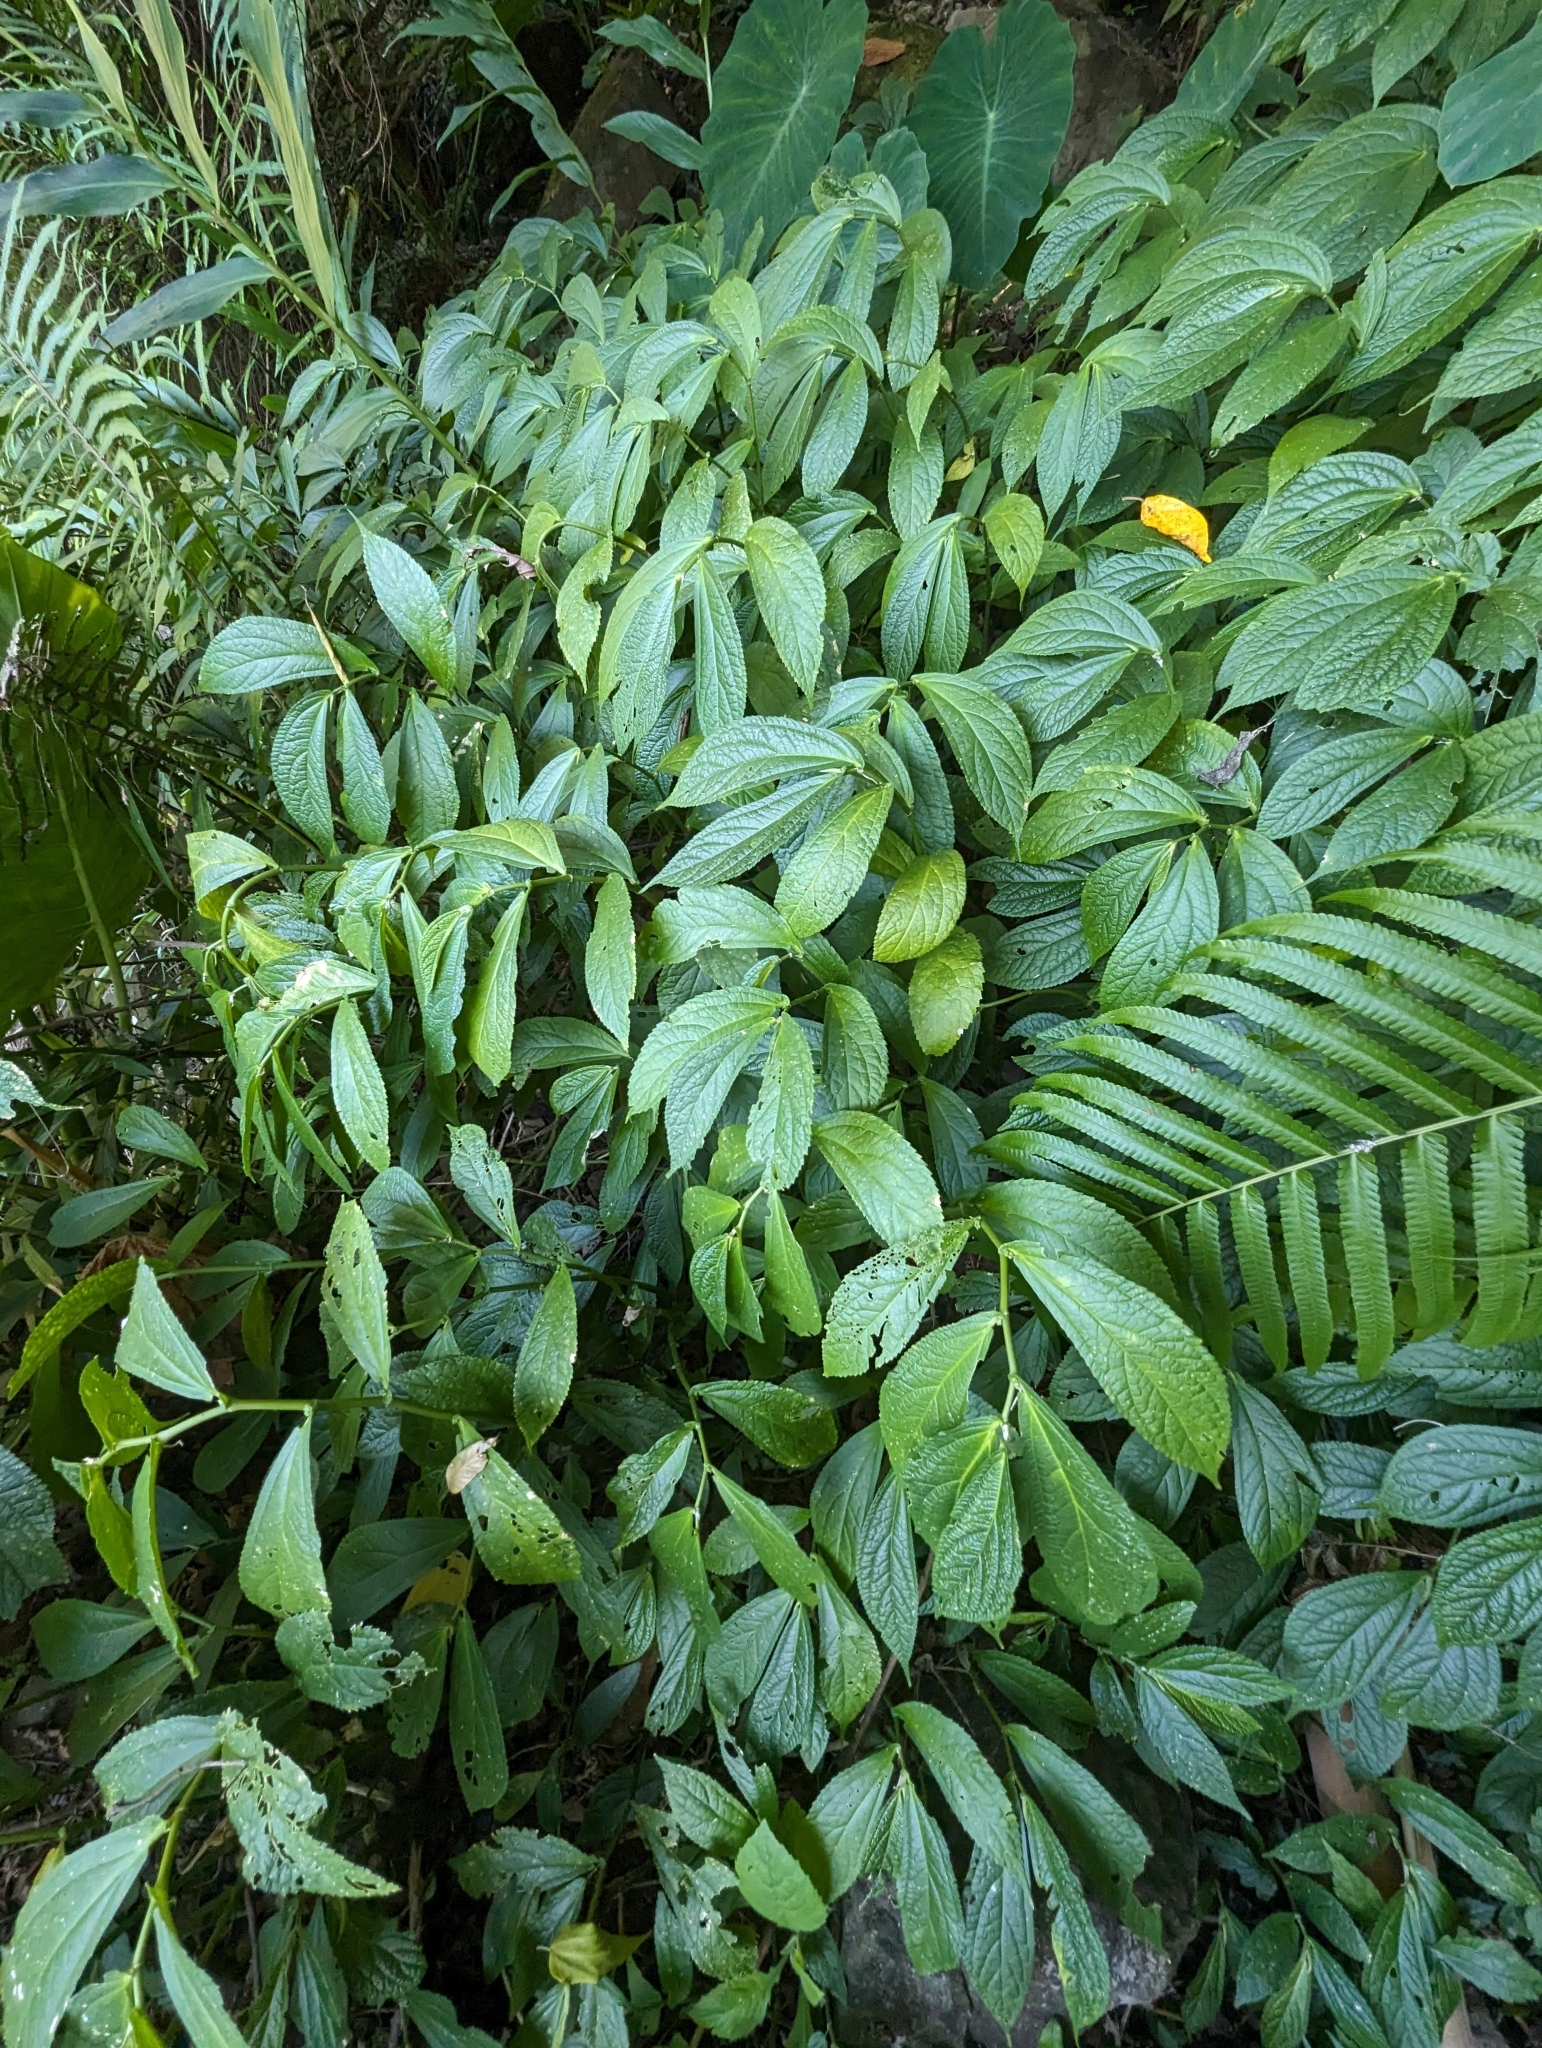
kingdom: Plantae
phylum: Tracheophyta
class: Magnoliopsida
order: Rosales
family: Urticaceae
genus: Elatostema
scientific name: Elatostema platyphyllum
